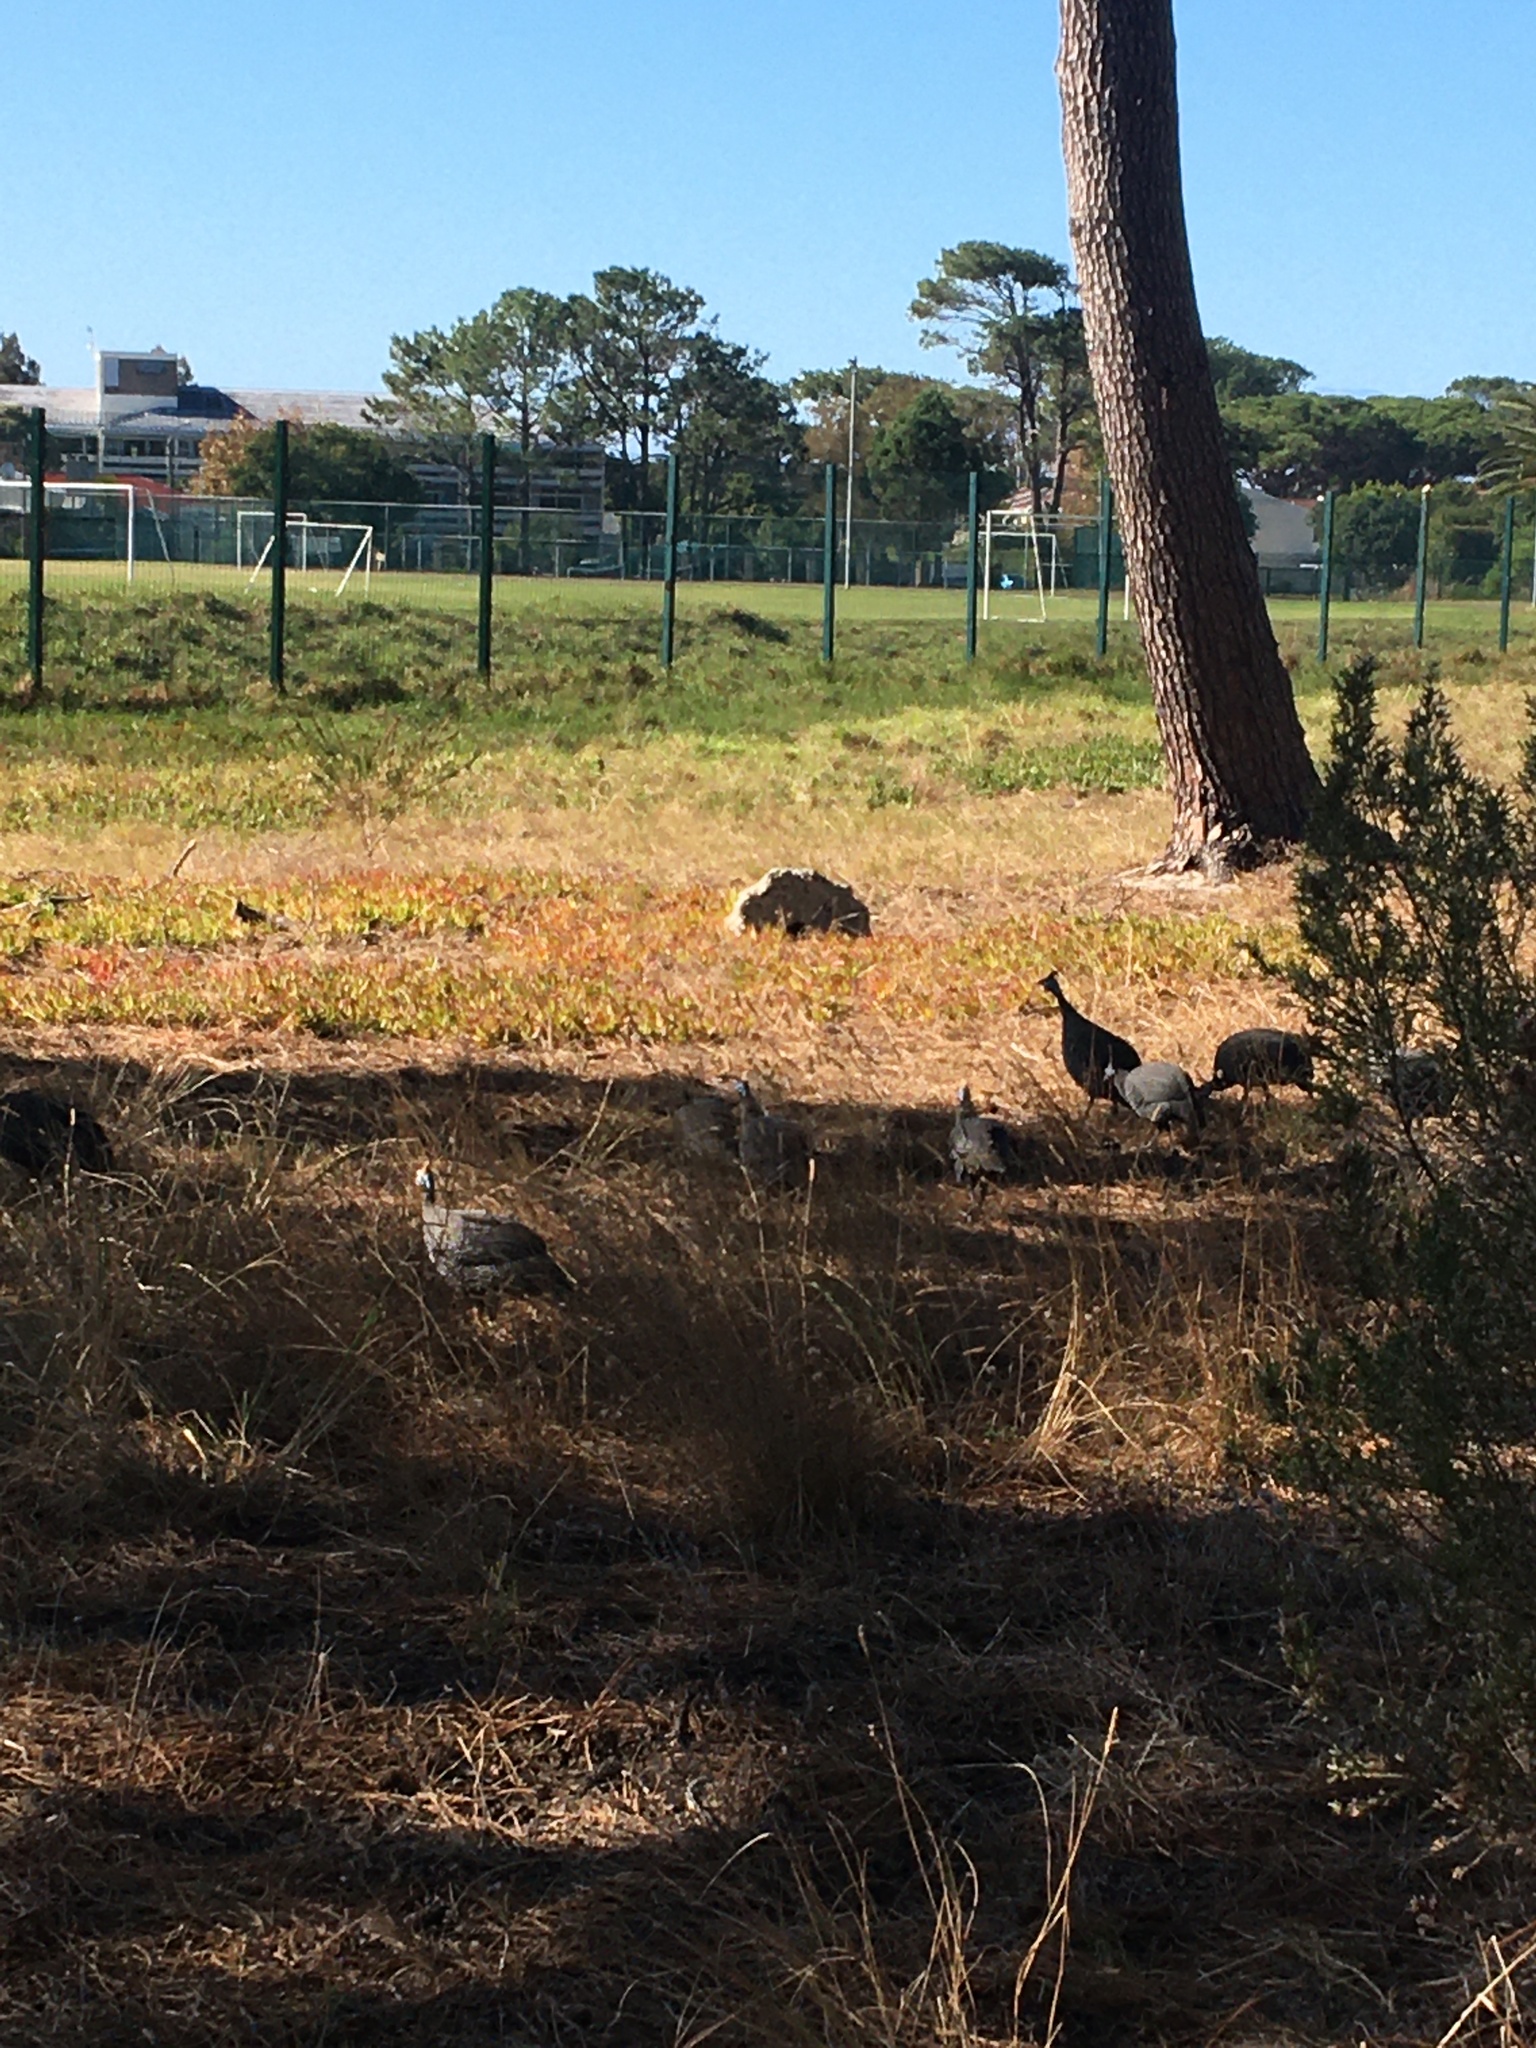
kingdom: Animalia
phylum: Chordata
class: Aves
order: Galliformes
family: Numididae
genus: Numida
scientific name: Numida meleagris
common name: Helmeted guineafowl
